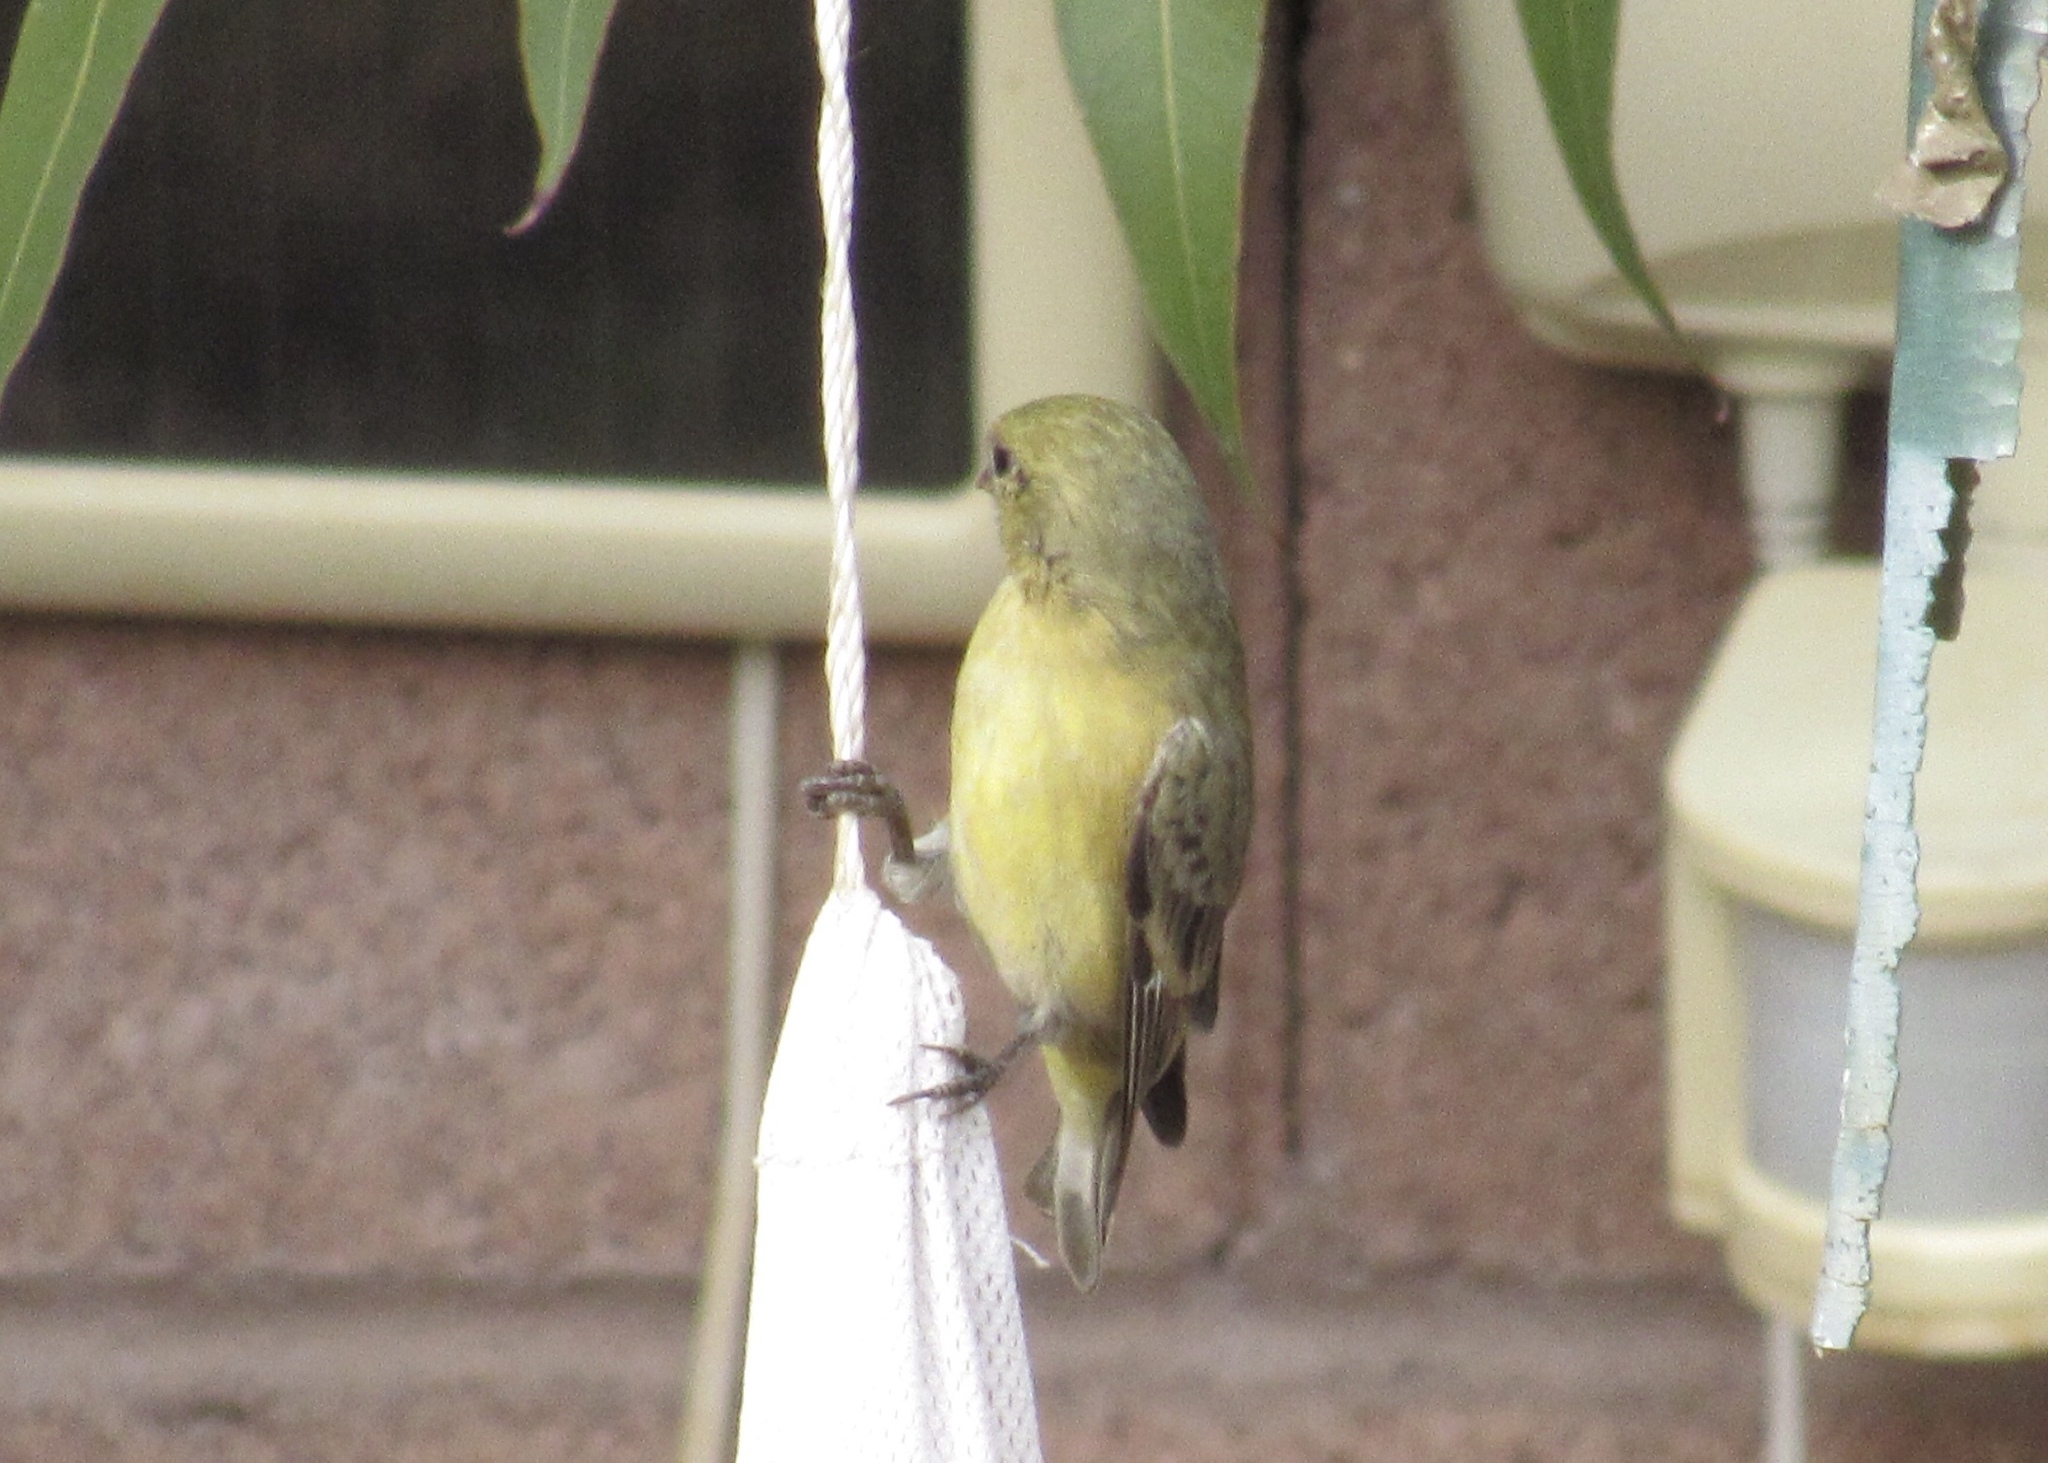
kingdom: Animalia
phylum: Chordata
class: Aves
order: Passeriformes
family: Fringillidae
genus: Spinus
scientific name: Spinus psaltria
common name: Lesser goldfinch
